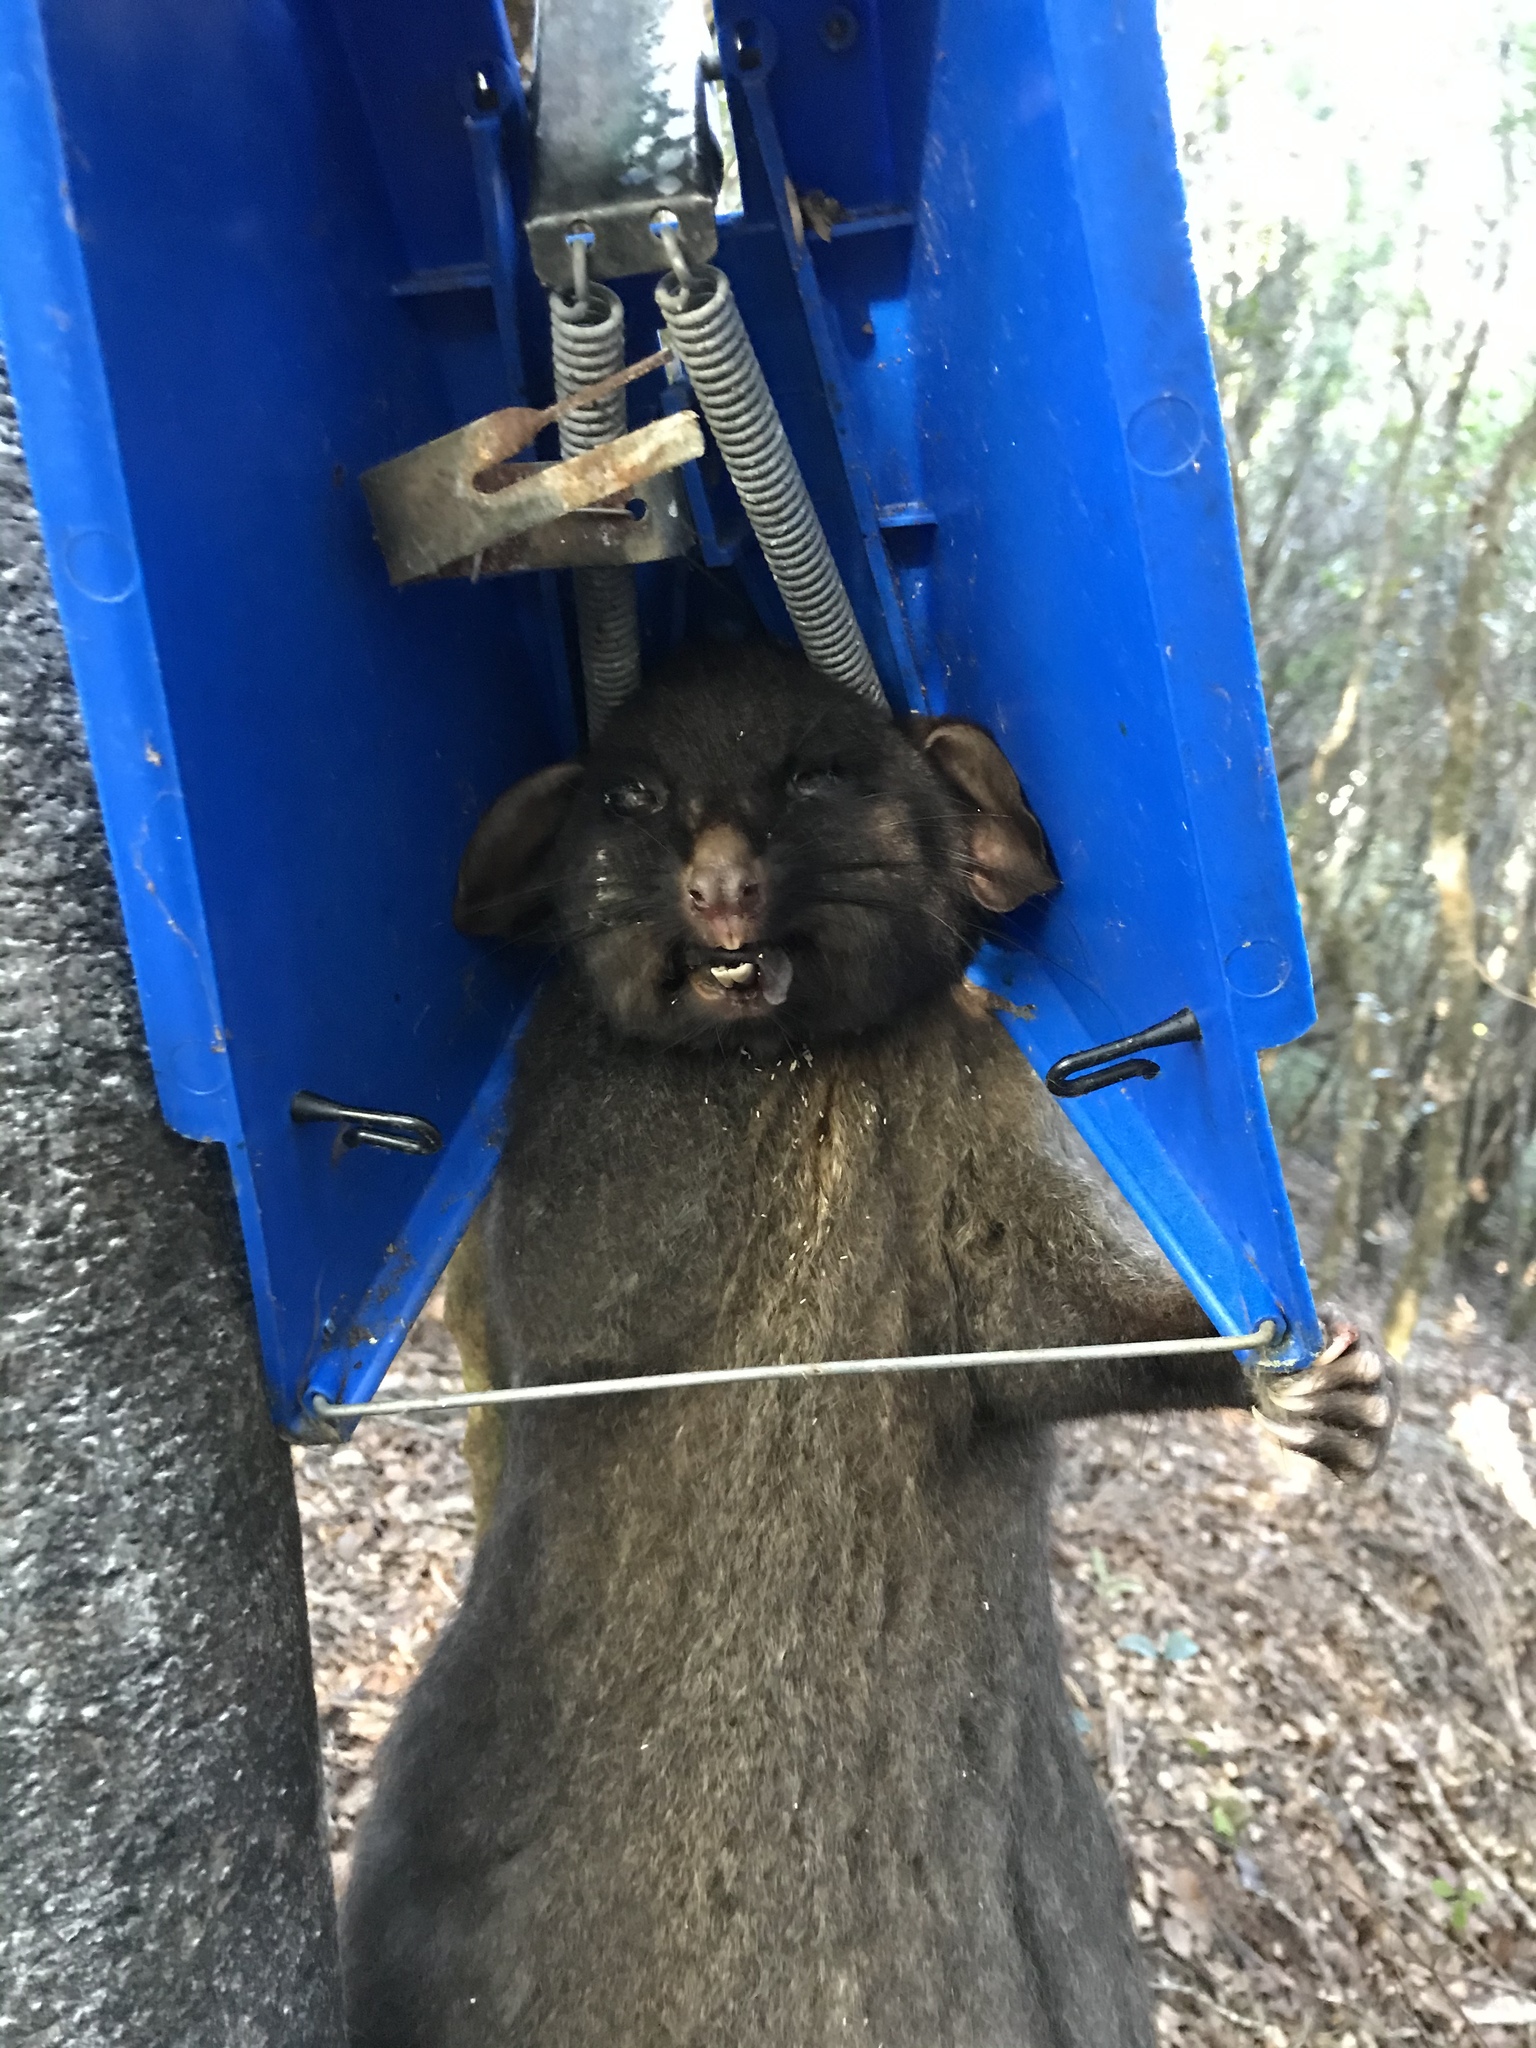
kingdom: Animalia
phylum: Chordata
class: Mammalia
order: Diprotodontia
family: Phalangeridae
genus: Trichosurus
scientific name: Trichosurus vulpecula
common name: Common brushtail
